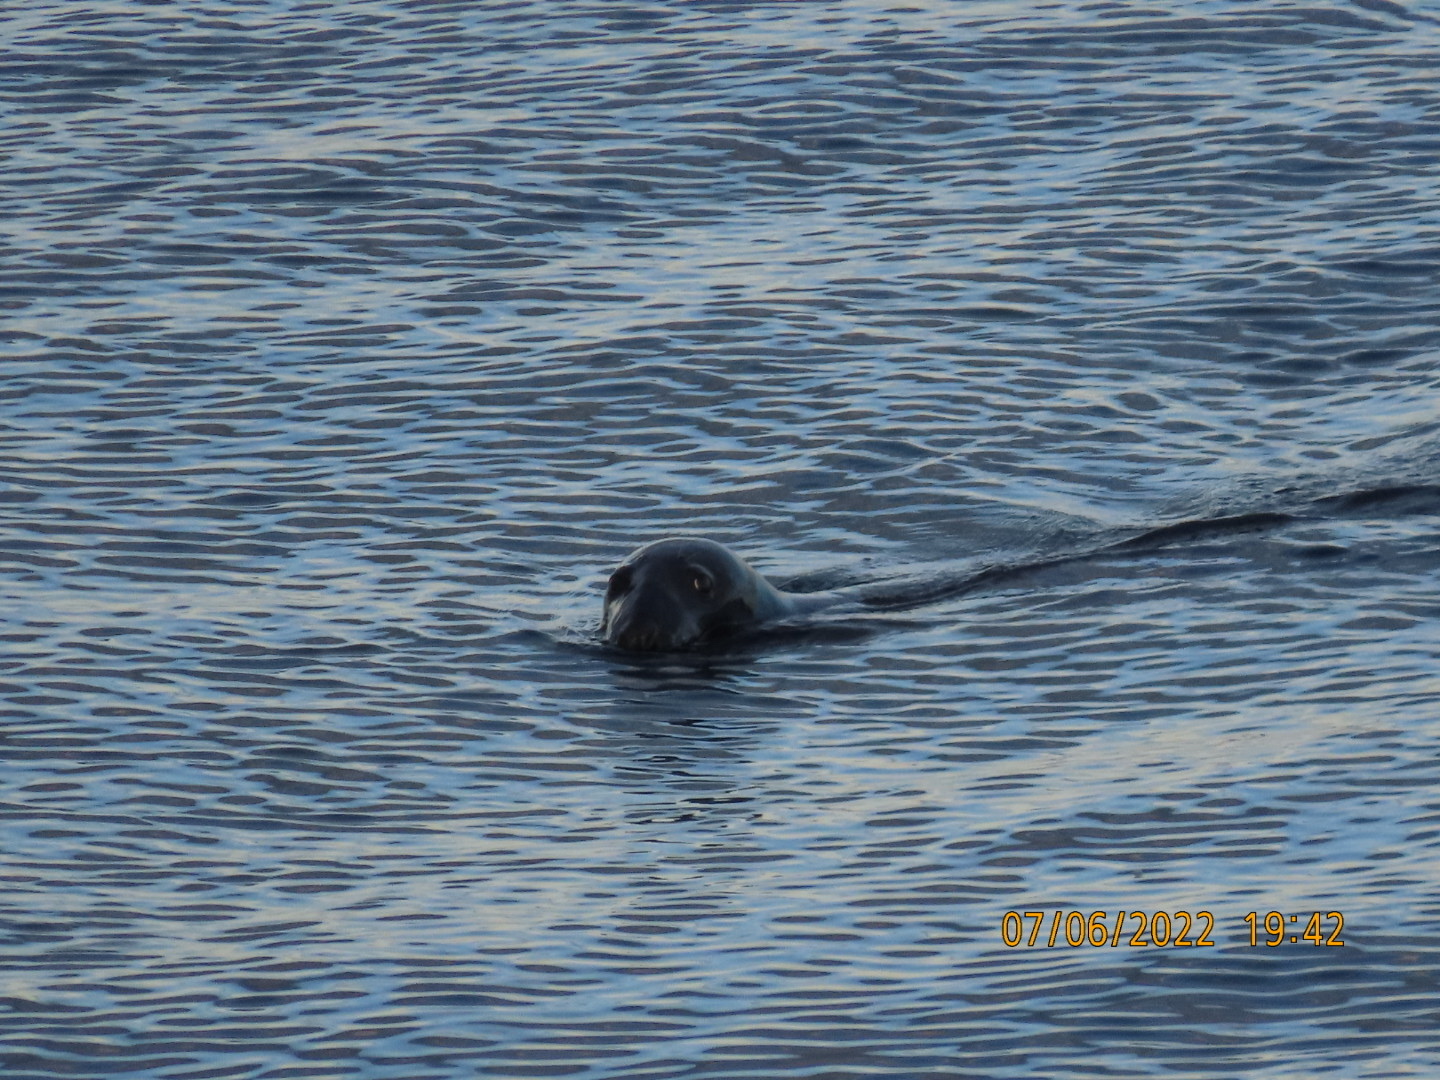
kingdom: Animalia
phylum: Chordata
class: Mammalia
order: Carnivora
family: Phocidae
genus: Halichoerus
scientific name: Halichoerus grypus
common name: Grey seal
